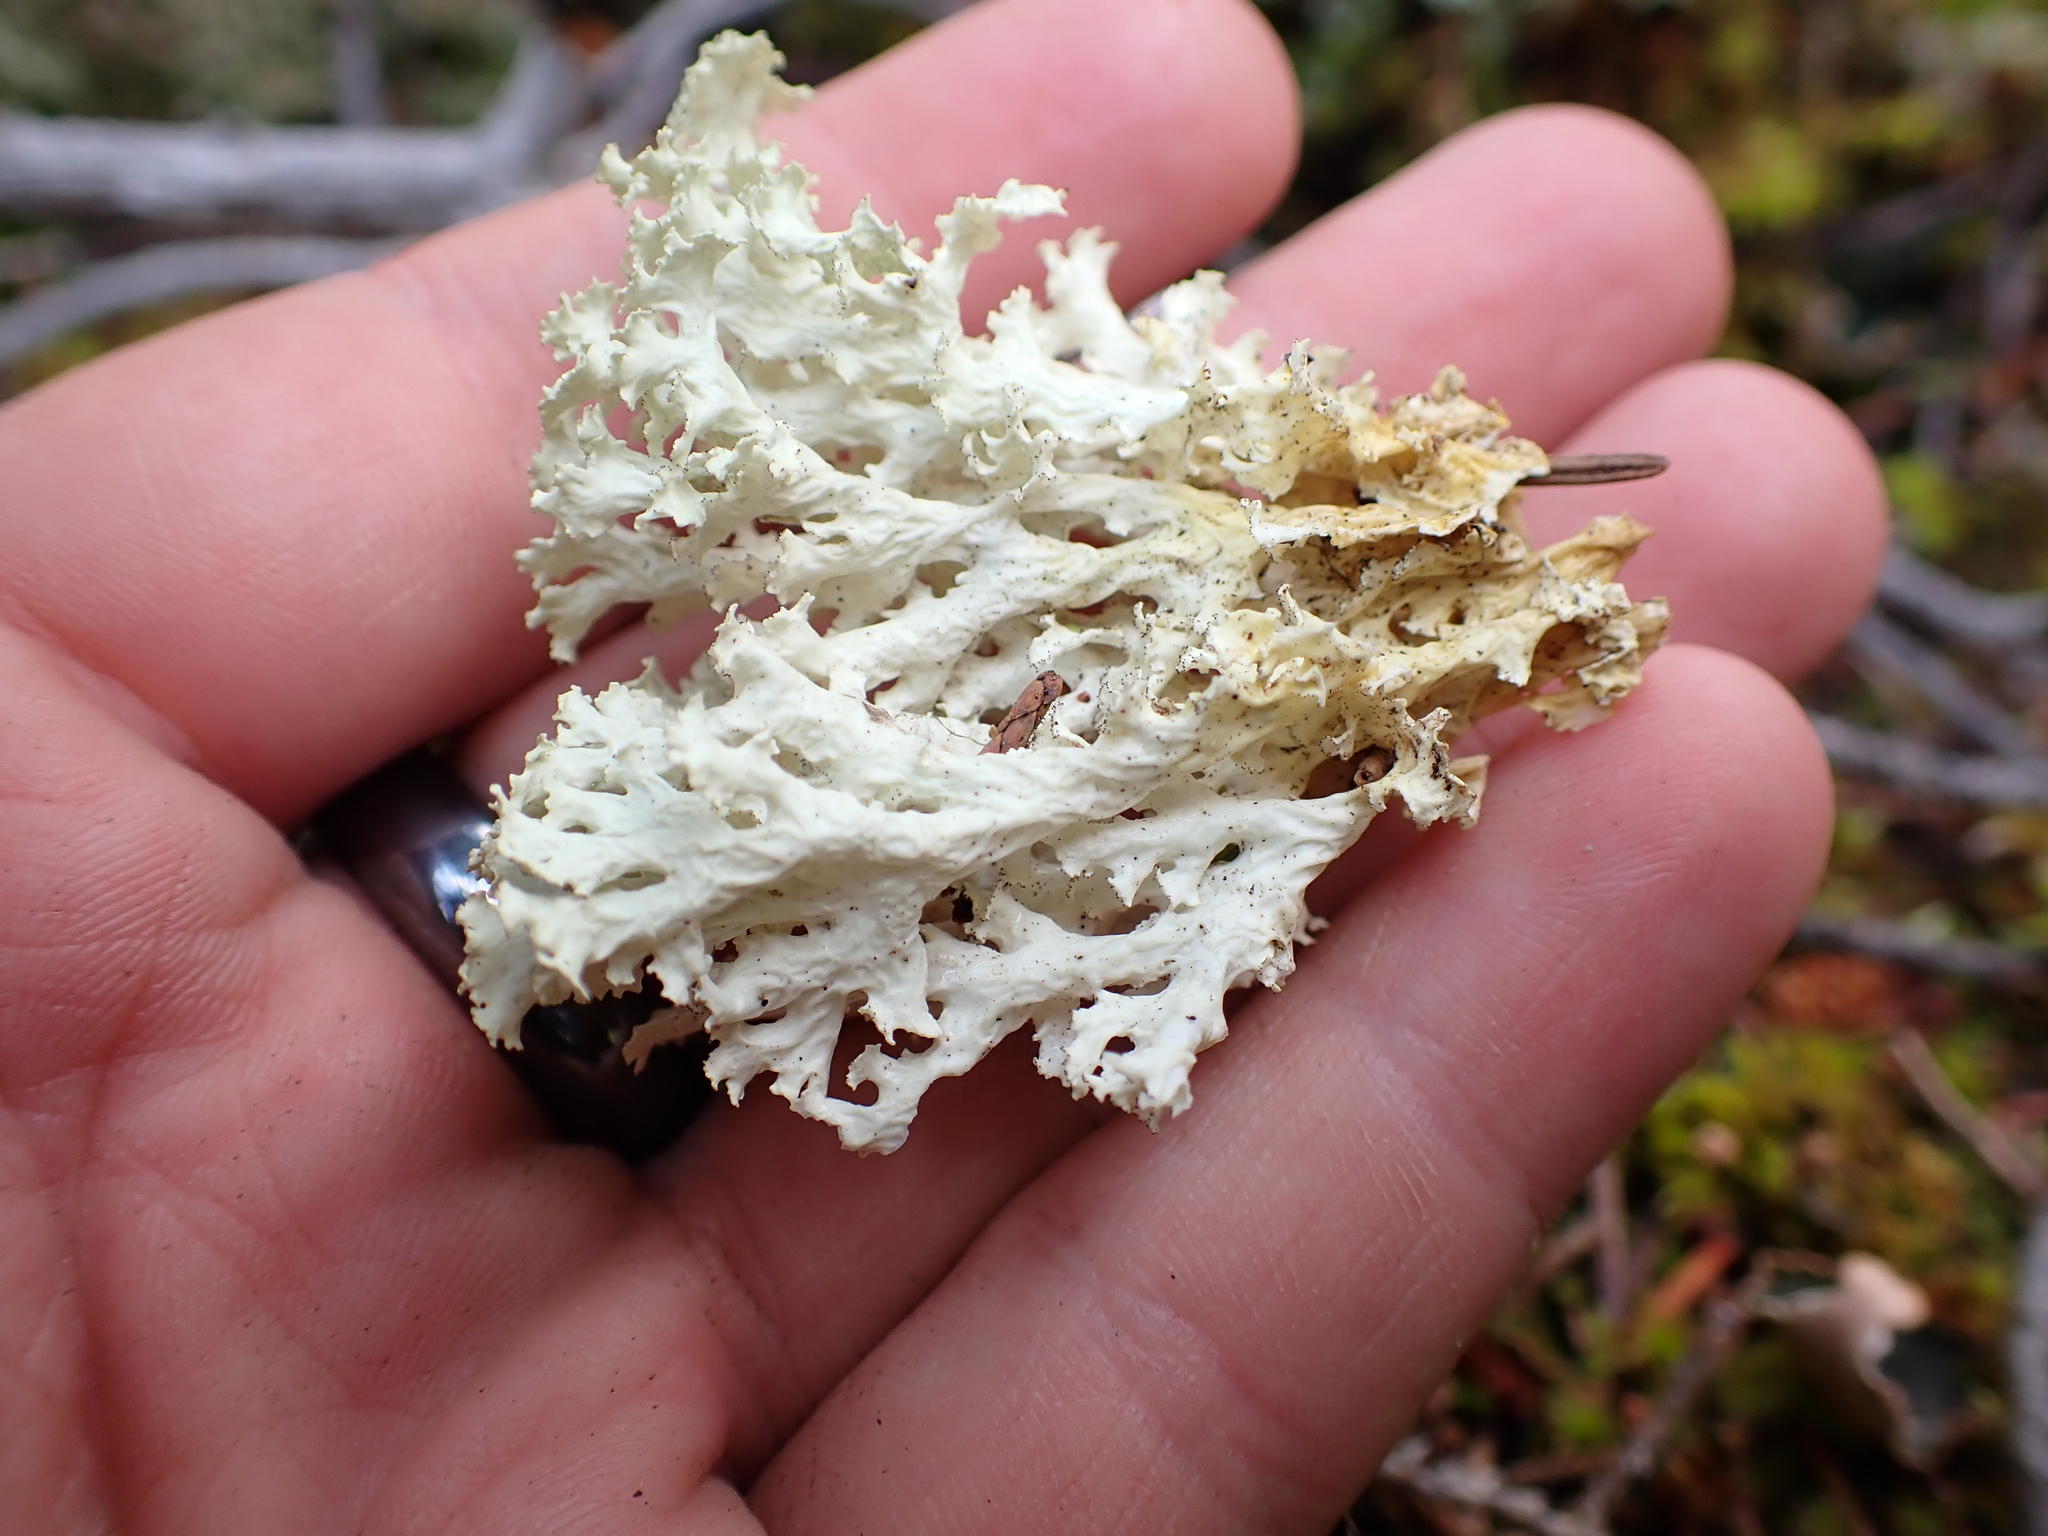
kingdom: Fungi
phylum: Ascomycota
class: Lecanoromycetes
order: Lecanorales
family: Parmeliaceae
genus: Nephromopsis
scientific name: Nephromopsis nivalis
